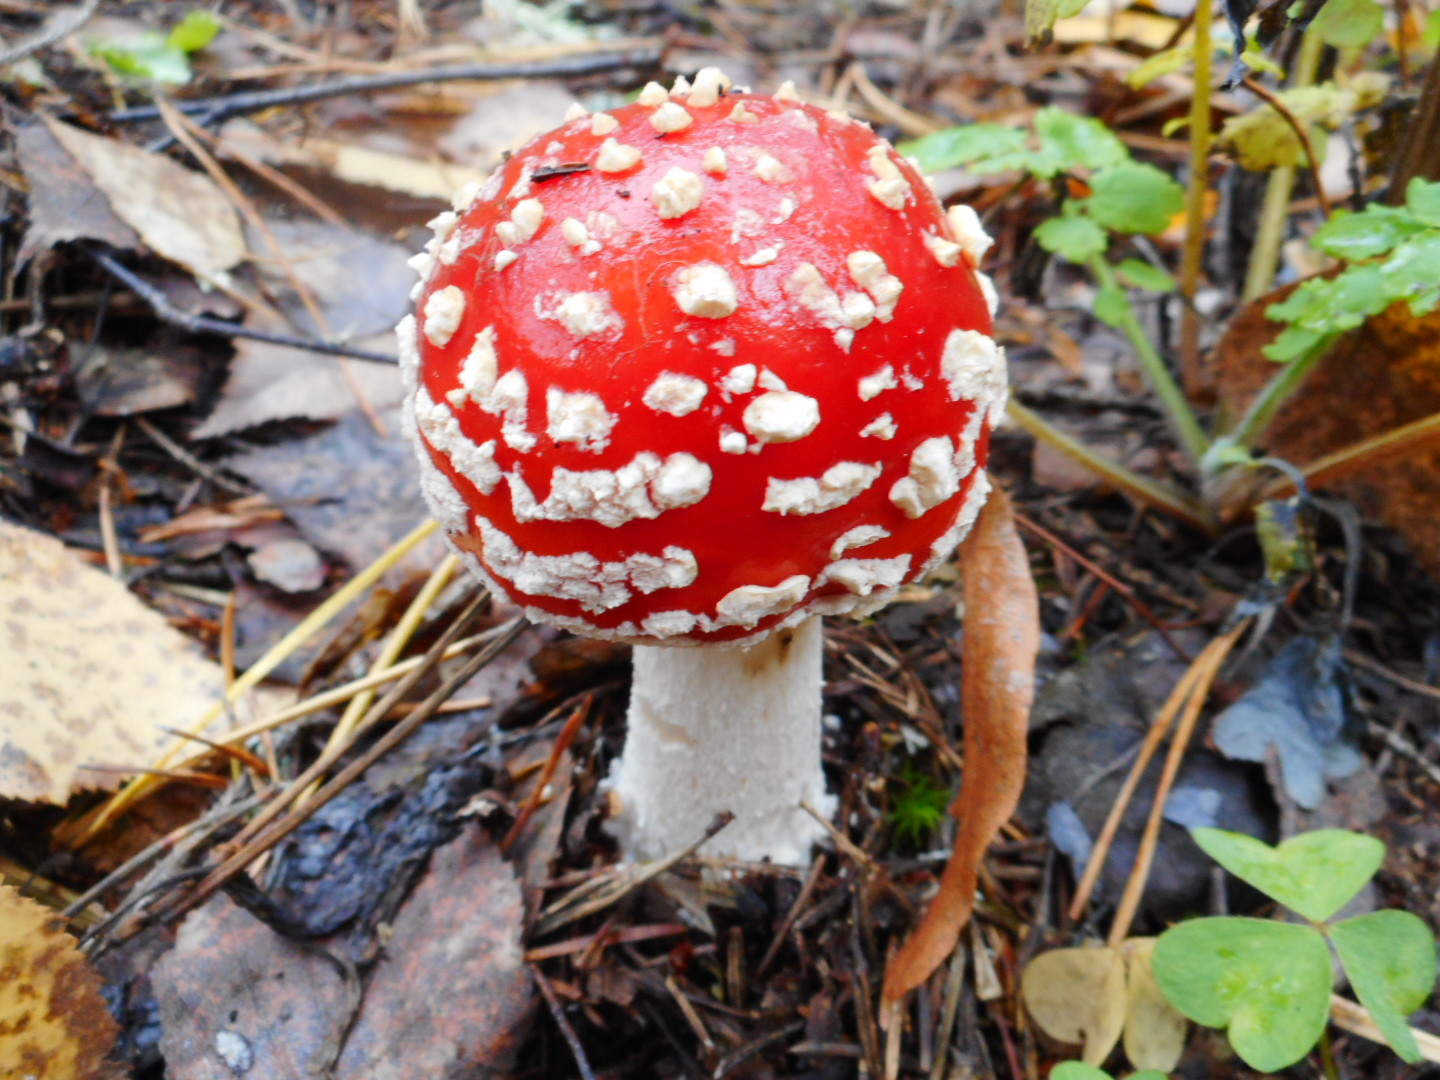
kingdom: Fungi
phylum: Basidiomycota
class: Agaricomycetes
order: Agaricales
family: Amanitaceae
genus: Amanita
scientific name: Amanita muscaria
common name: Fly agaric
